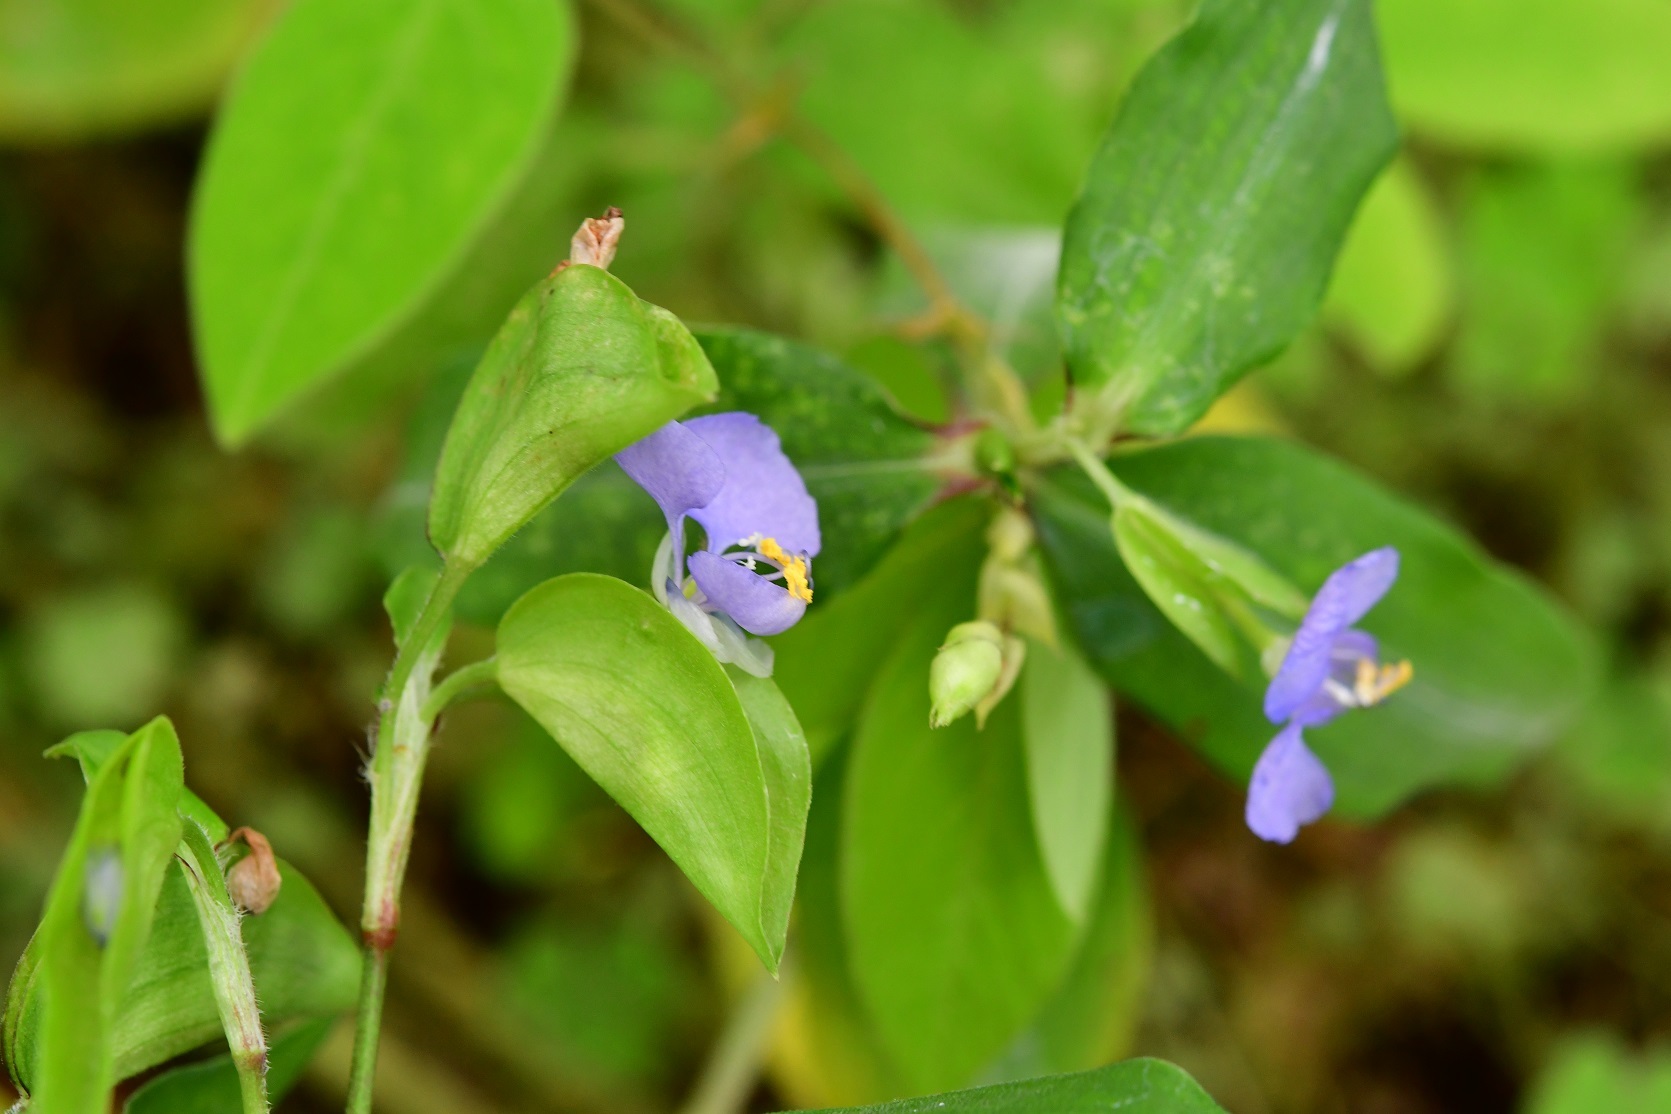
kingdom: Plantae
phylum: Tracheophyta
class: Liliopsida
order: Commelinales
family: Commelinaceae
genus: Commelina
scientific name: Commelina diffusa
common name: Climbing dayflower
